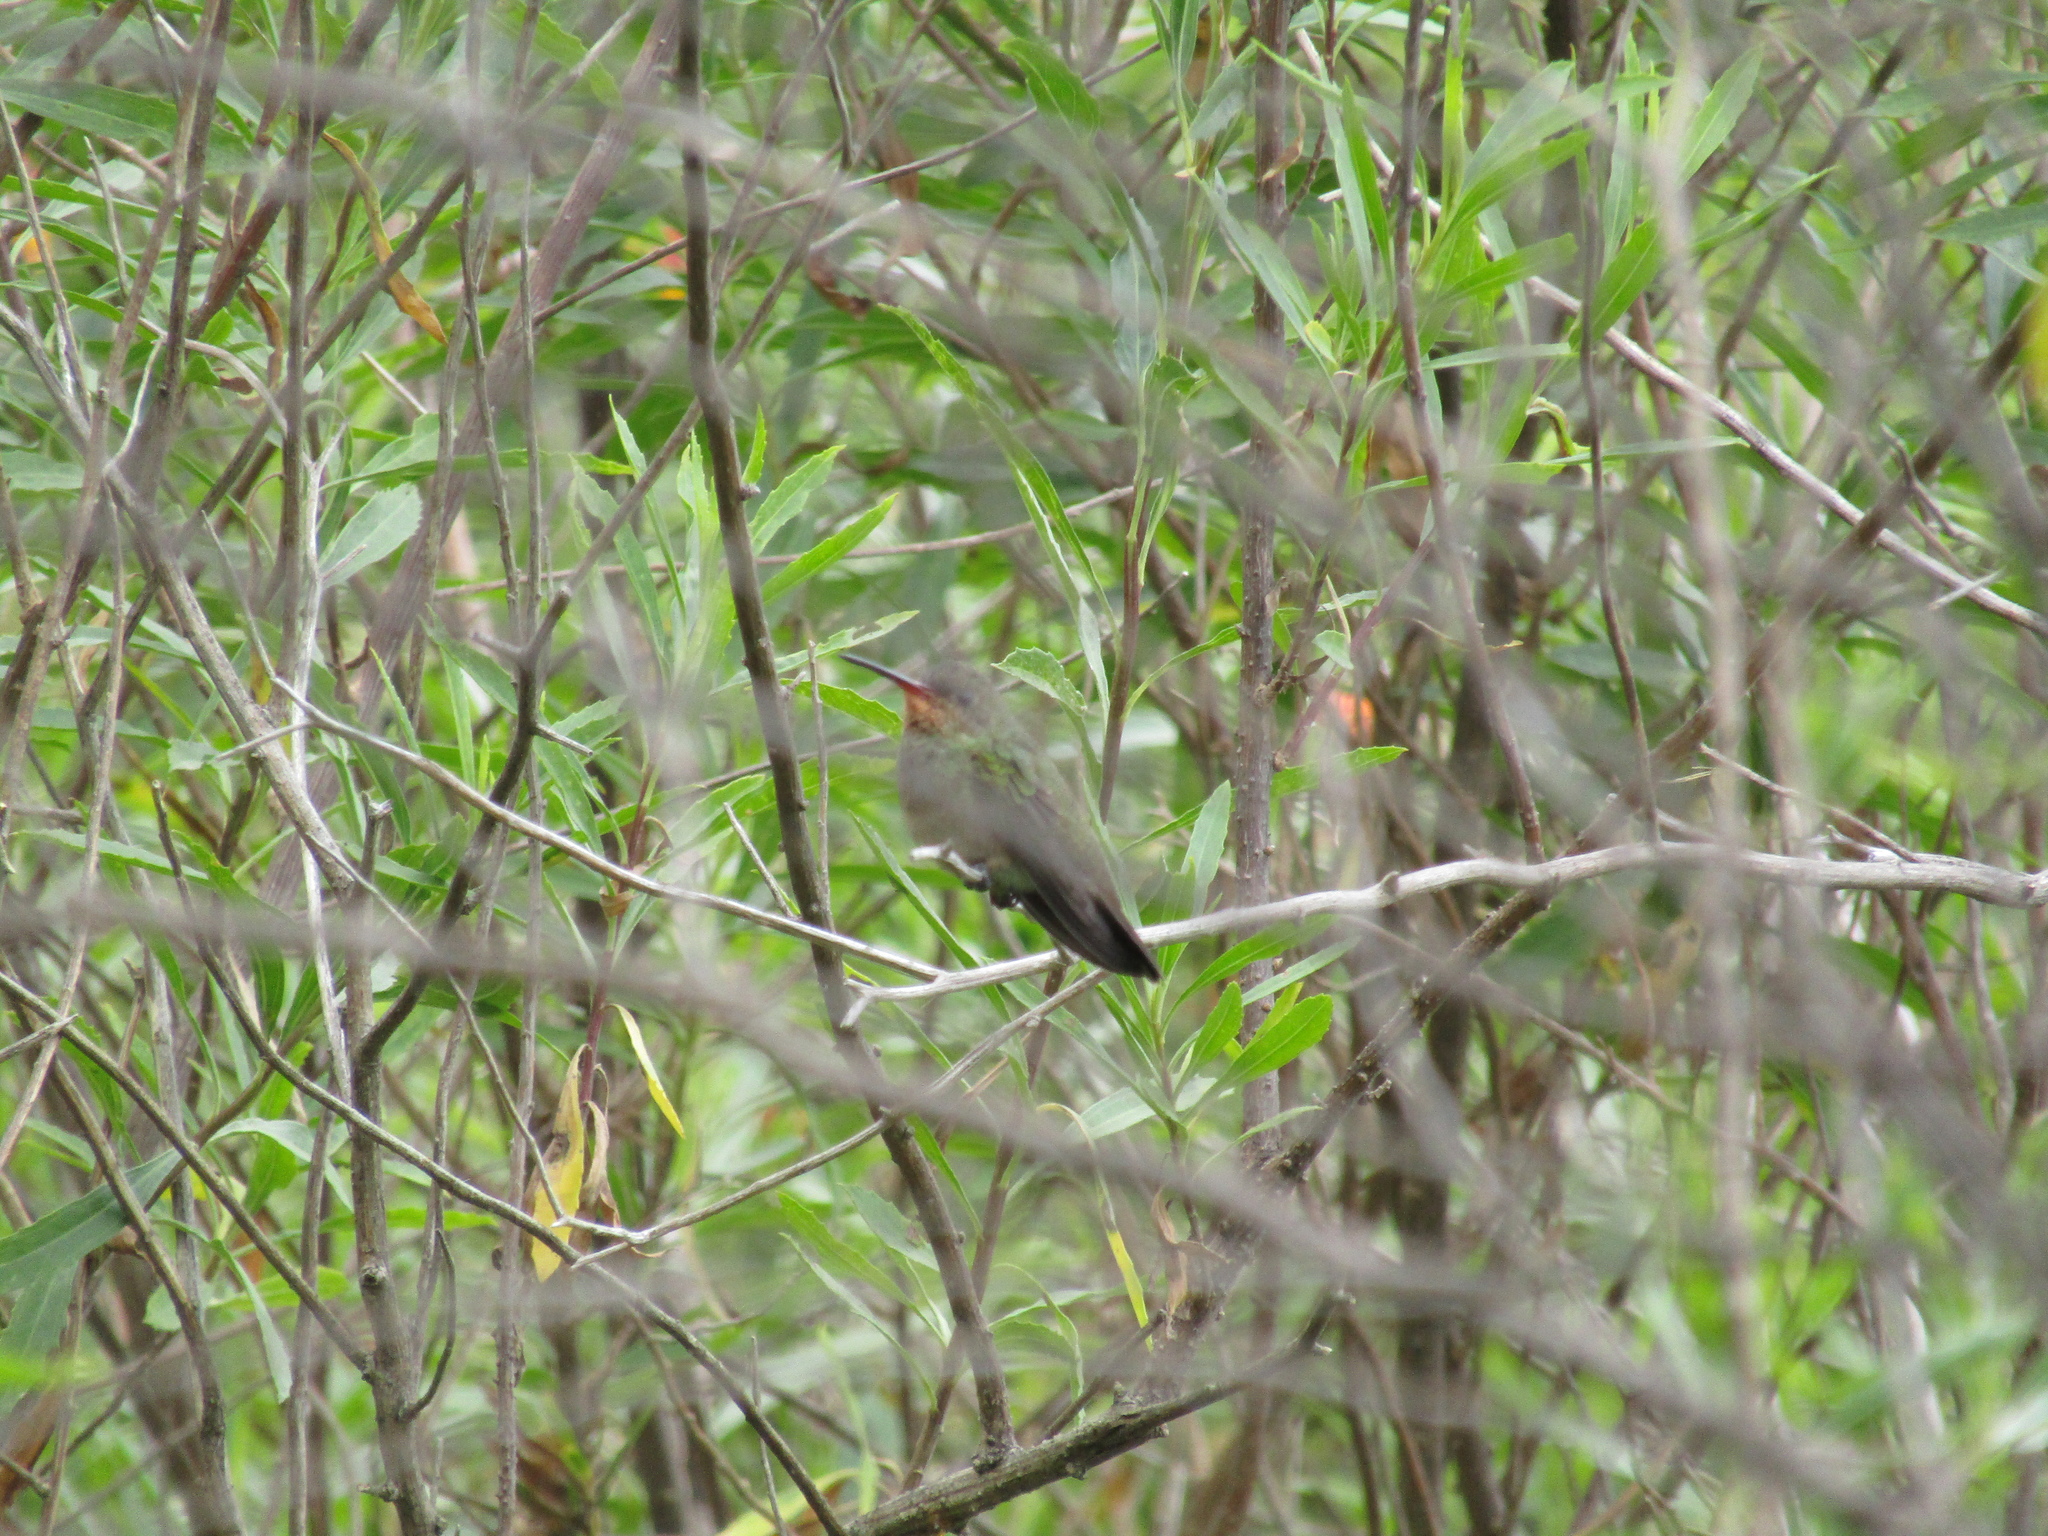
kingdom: Animalia
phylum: Chordata
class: Aves
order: Apodiformes
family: Trochilidae
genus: Hylocharis
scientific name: Hylocharis chrysura
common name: Gilded sapphire
